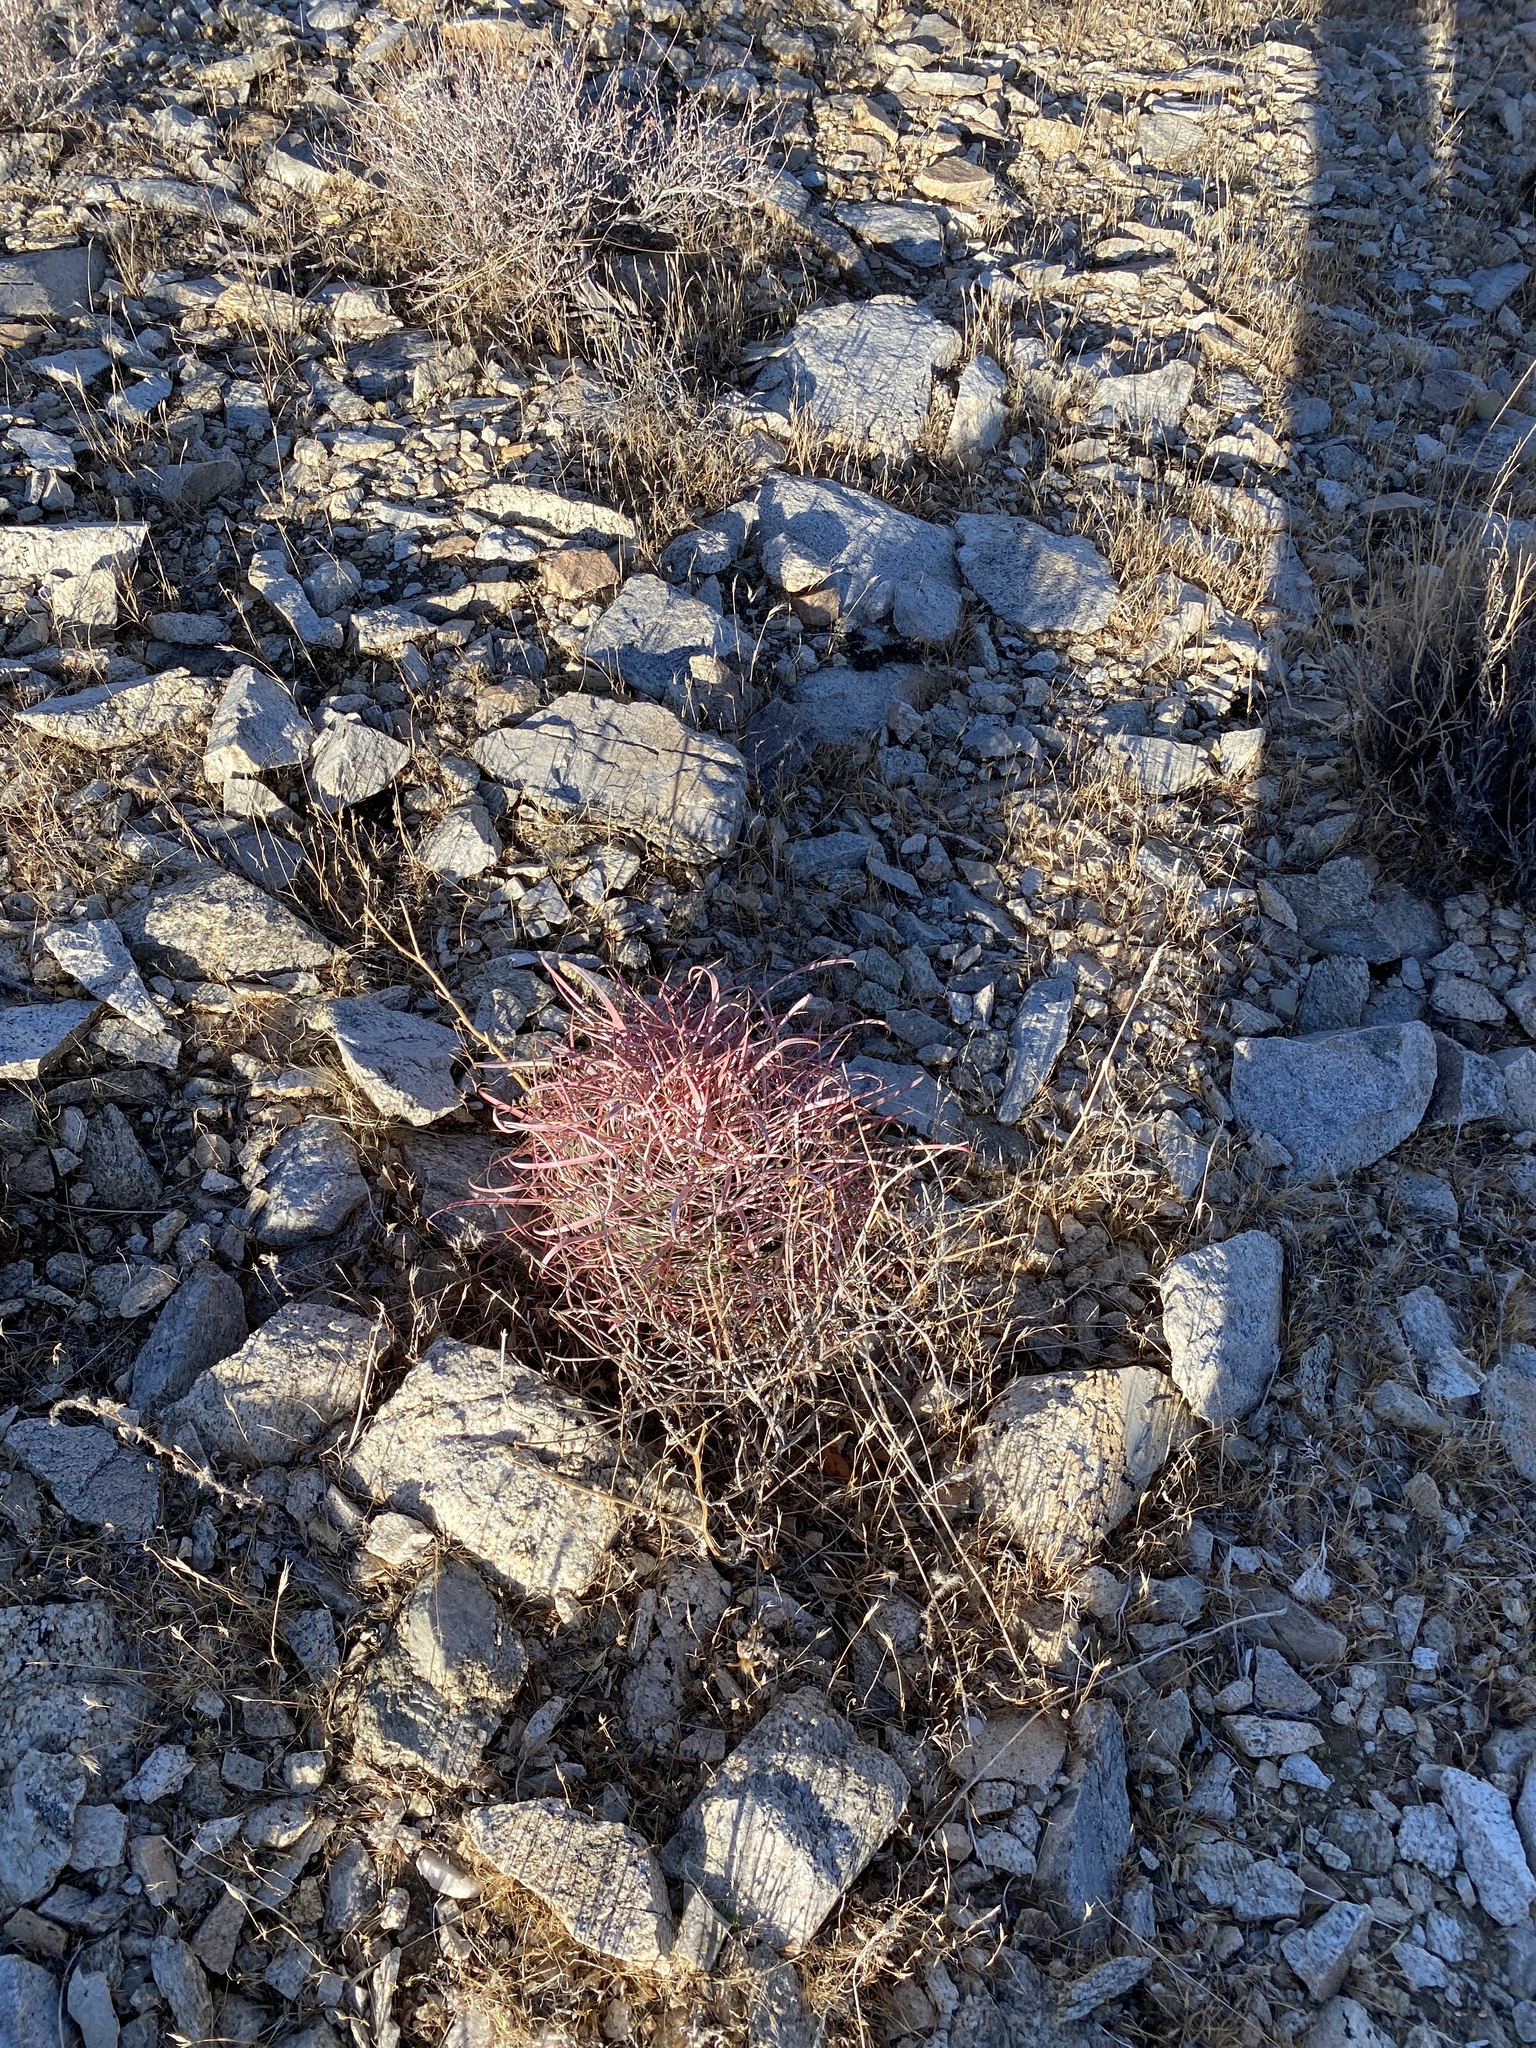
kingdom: Plantae
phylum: Tracheophyta
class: Magnoliopsida
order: Caryophyllales
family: Cactaceae
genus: Ferocactus
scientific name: Ferocactus cylindraceus
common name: California barrel cactus
